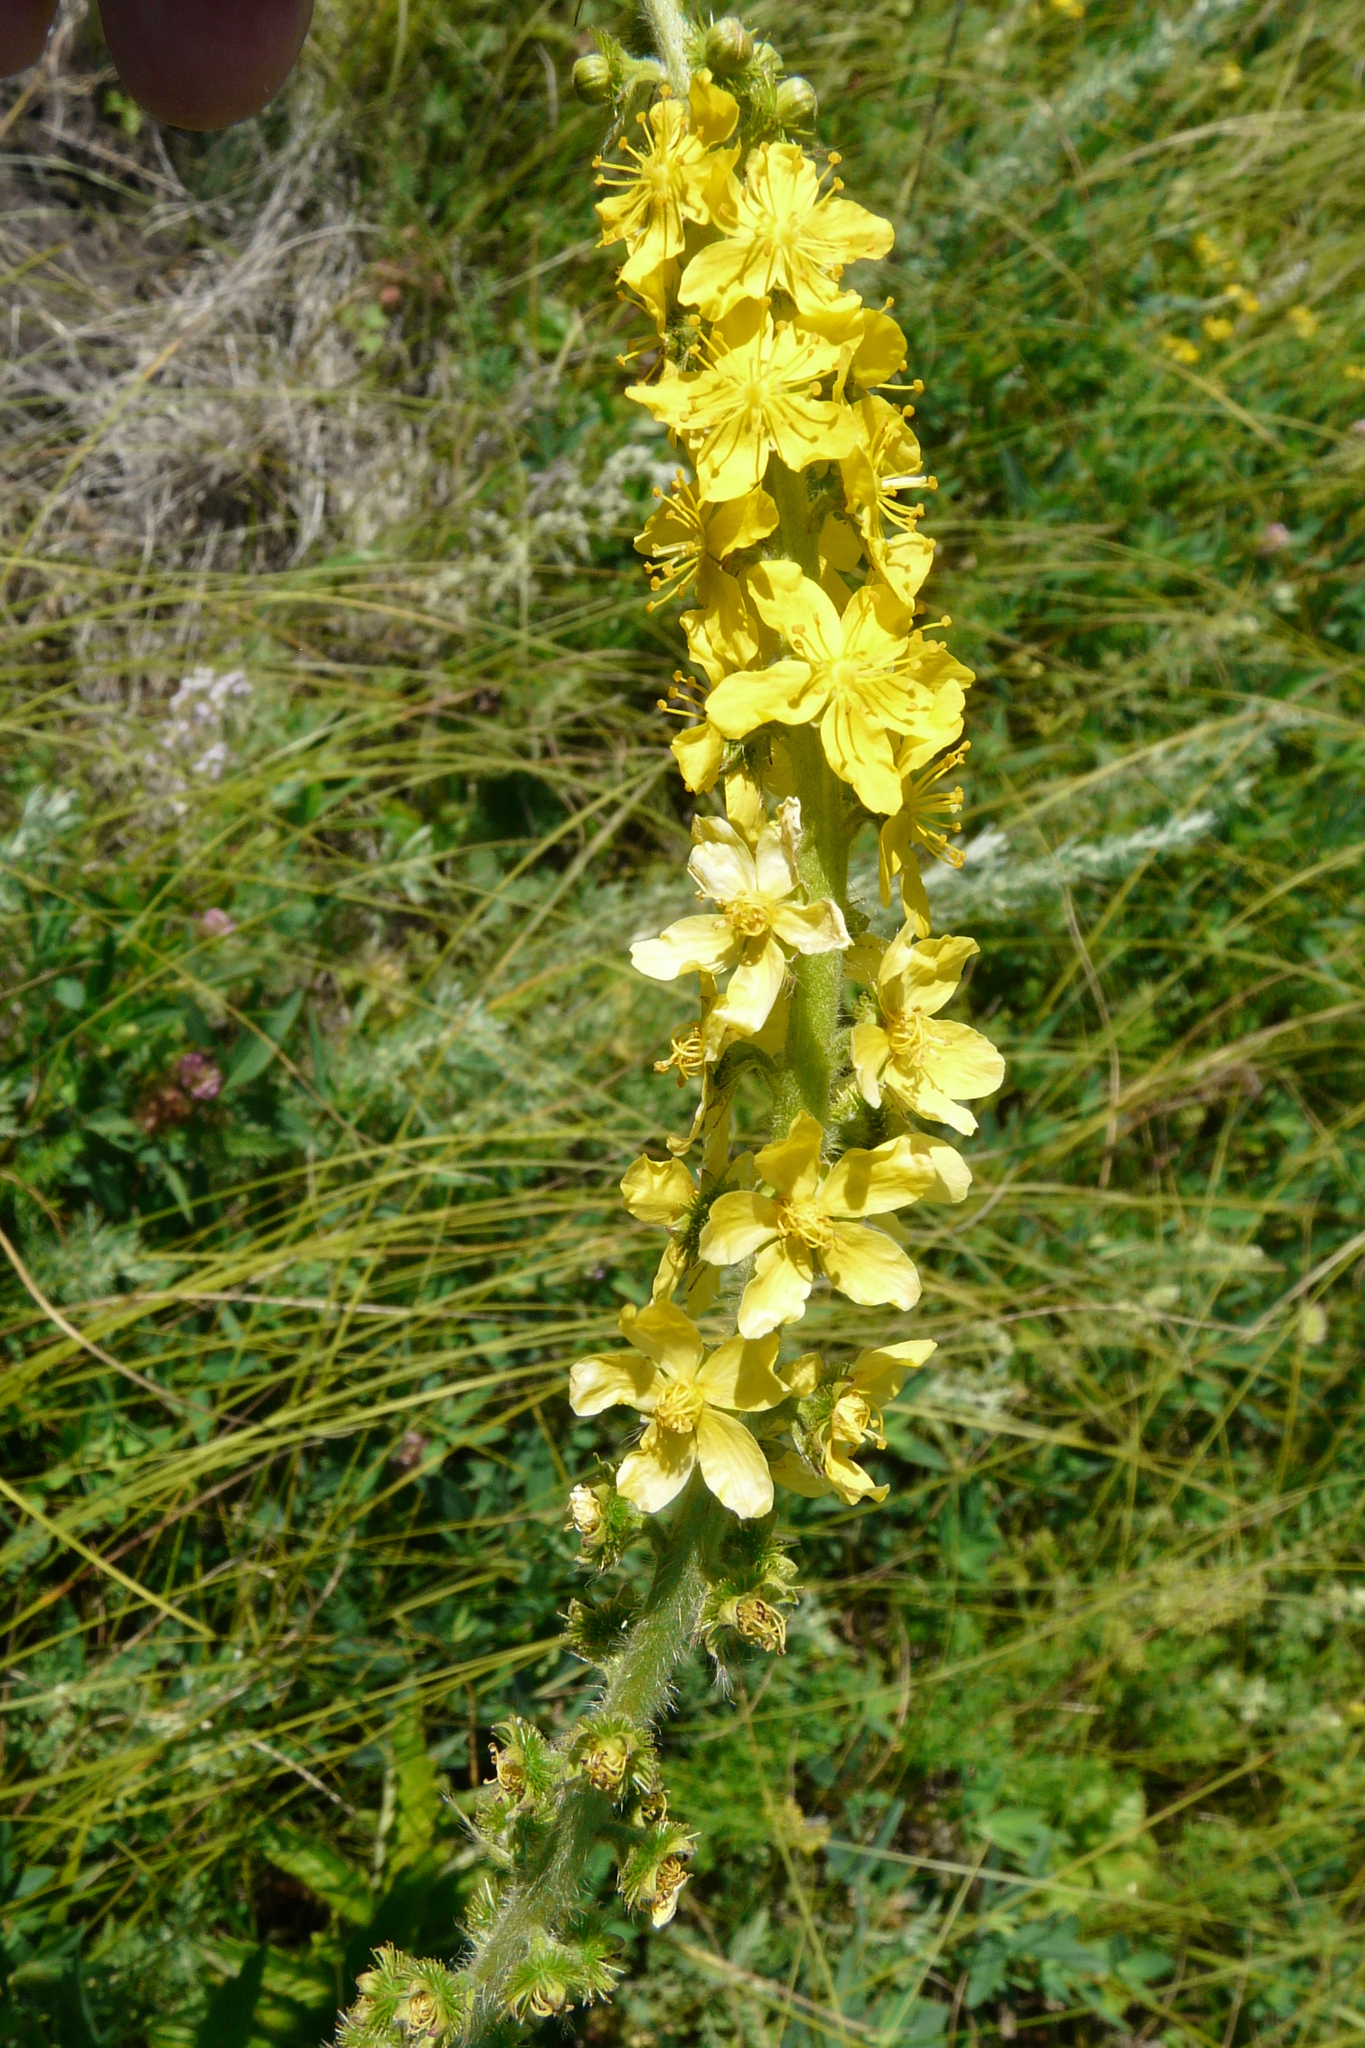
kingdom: Plantae
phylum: Tracheophyta
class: Magnoliopsida
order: Rosales
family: Rosaceae
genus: Agrimonia
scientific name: Agrimonia eupatoria
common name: Agrimony
